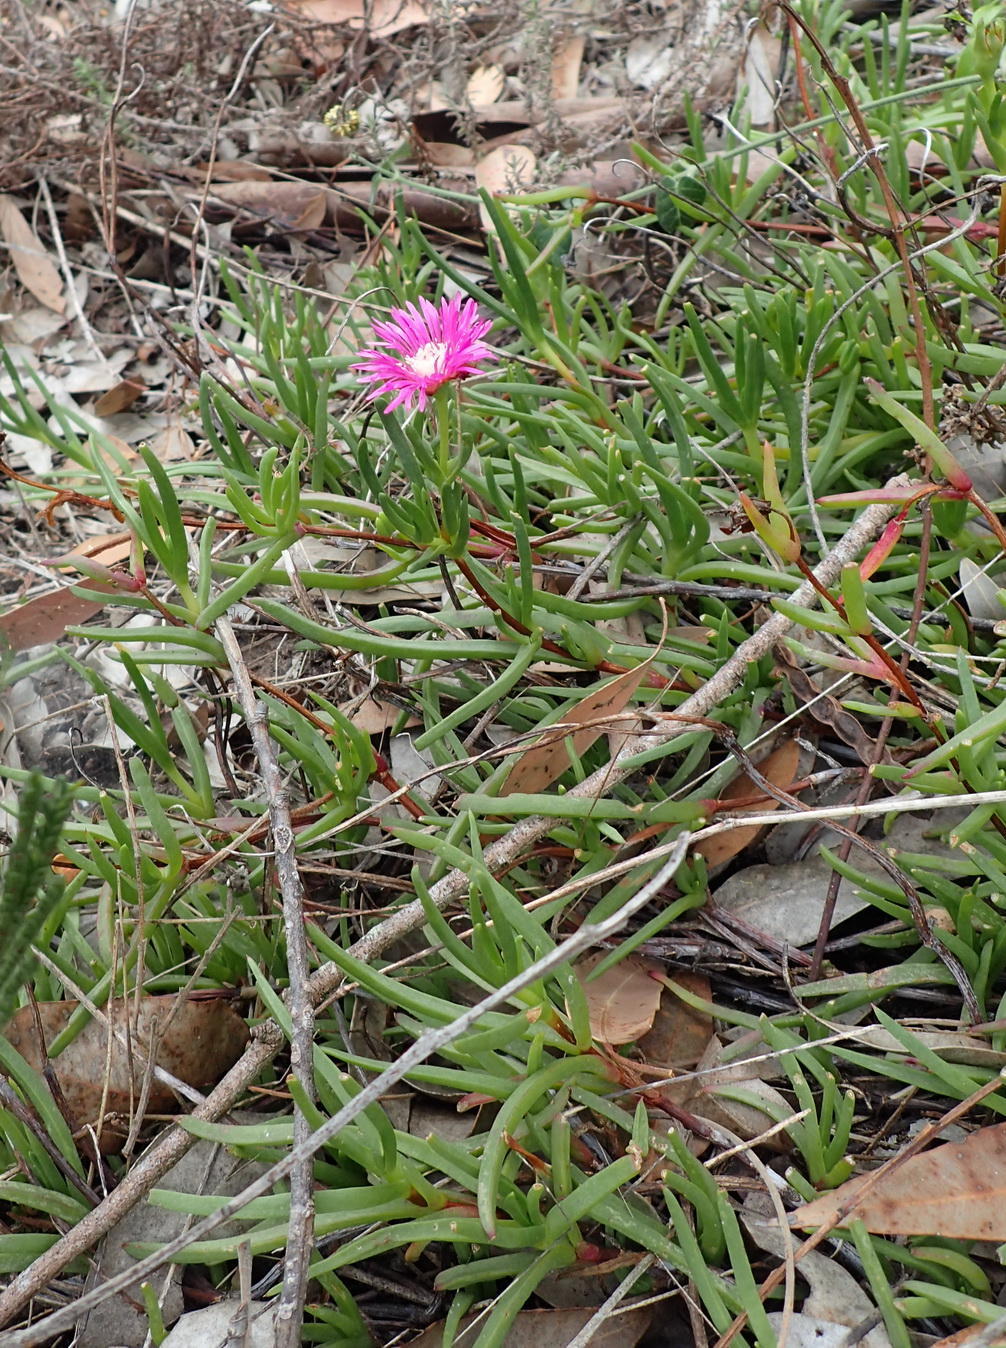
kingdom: Plantae
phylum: Tracheophyta
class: Magnoliopsida
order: Caryophyllales
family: Aizoaceae
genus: Ruschia
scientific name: Ruschia duthiae
